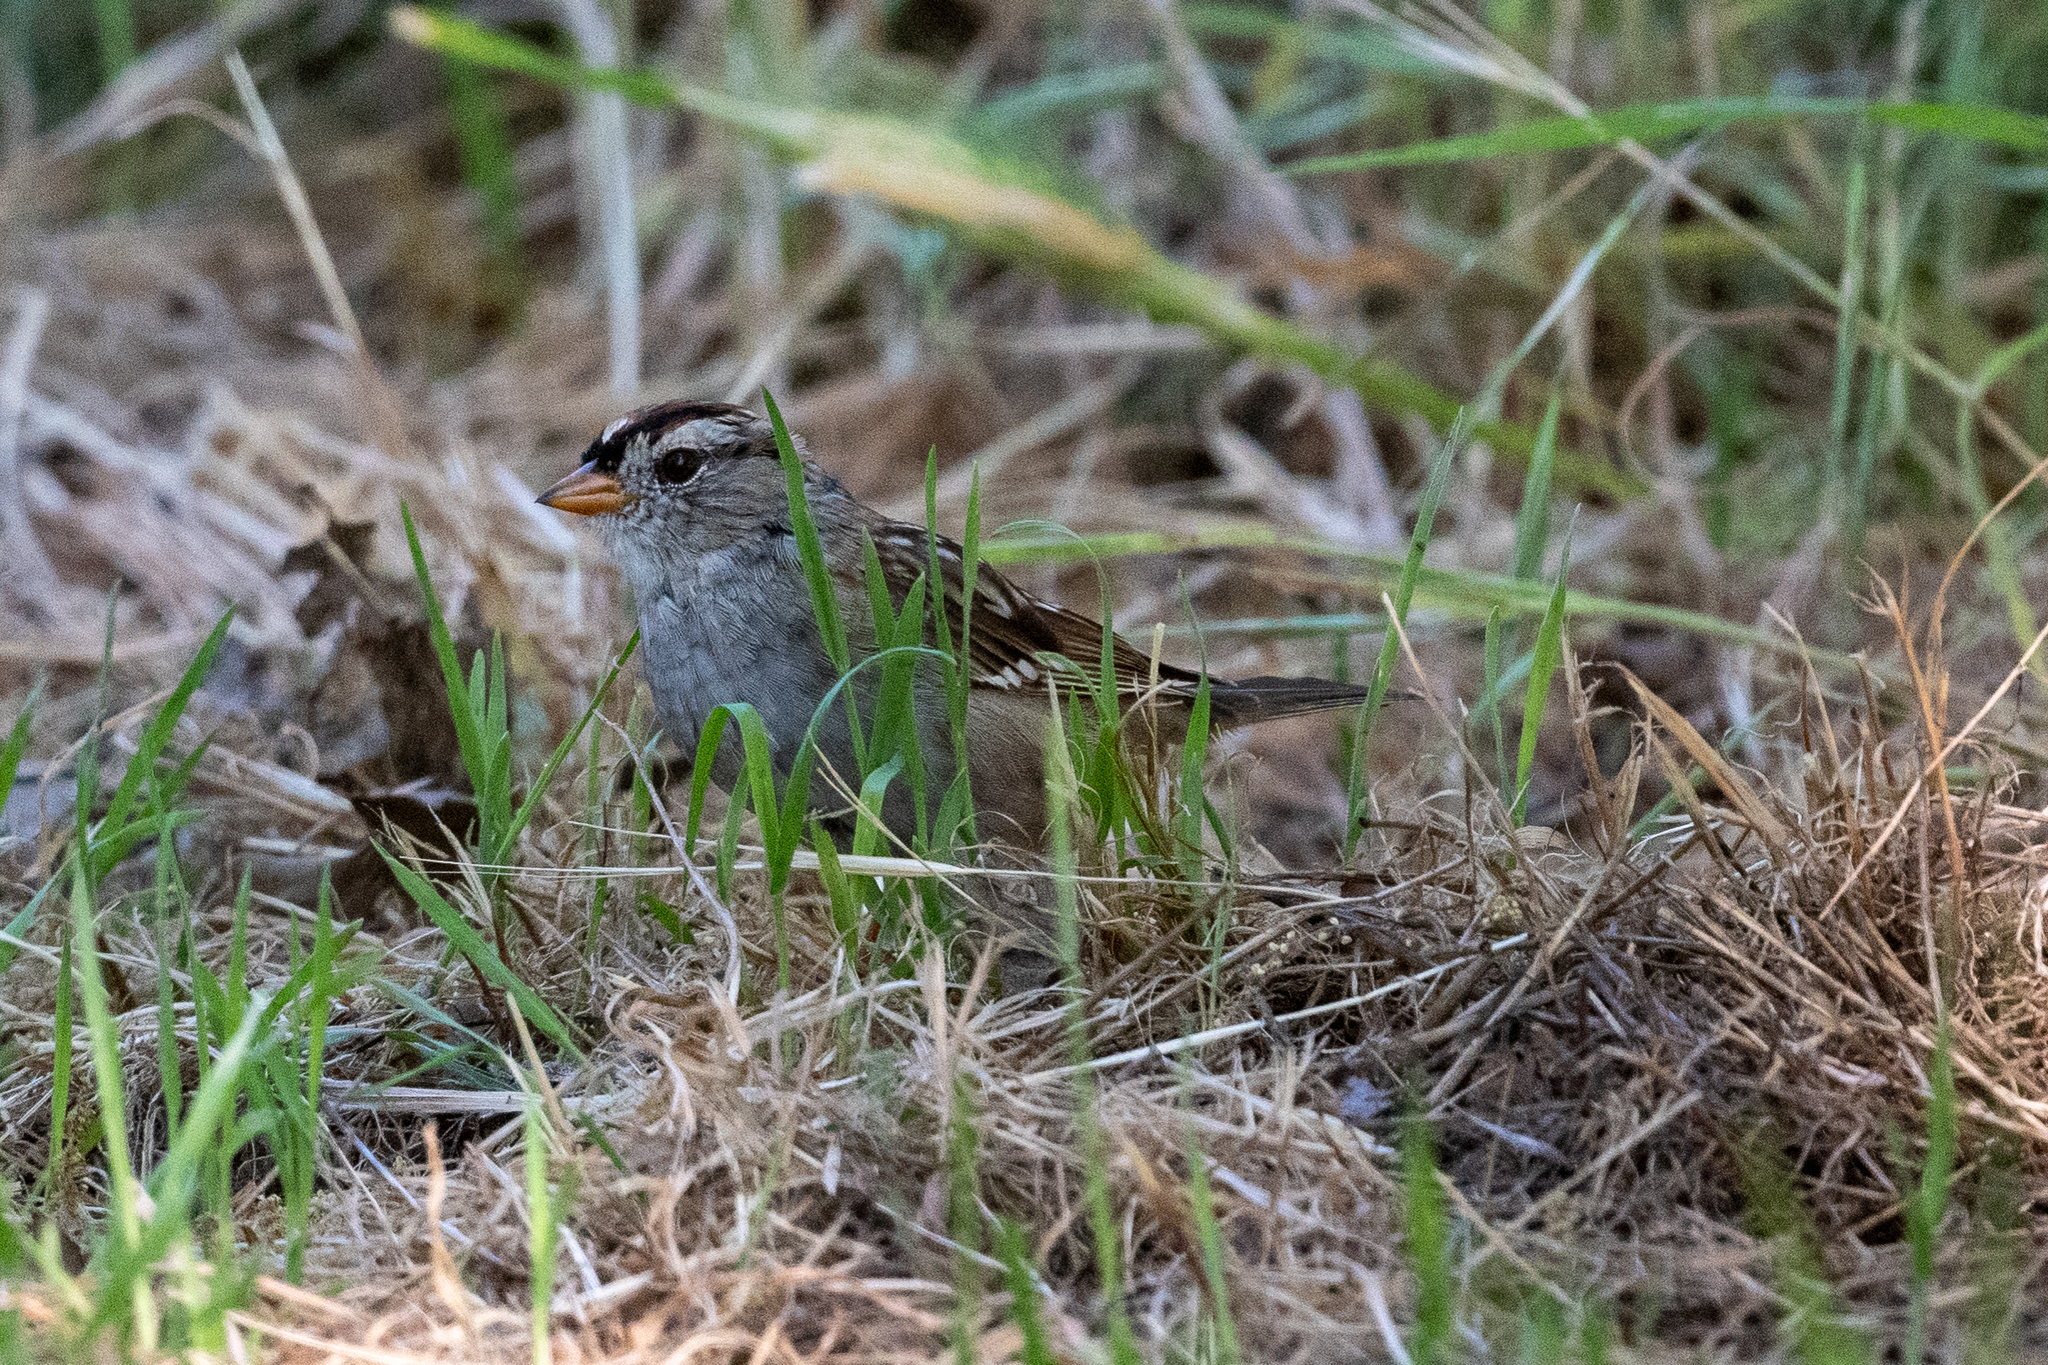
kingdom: Animalia
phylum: Chordata
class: Aves
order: Passeriformes
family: Passerellidae
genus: Zonotrichia
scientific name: Zonotrichia leucophrys
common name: White-crowned sparrow
